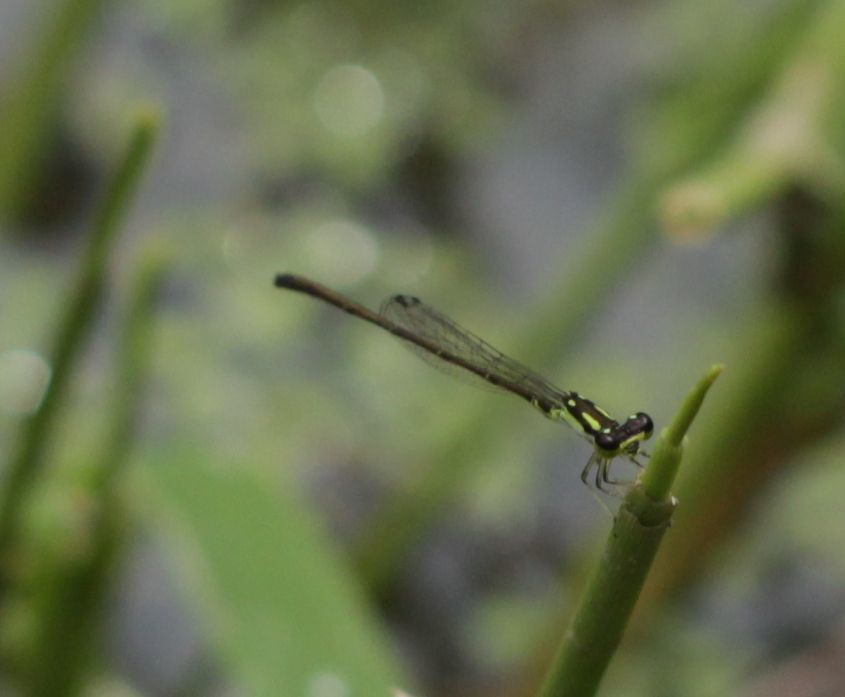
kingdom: Animalia
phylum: Arthropoda
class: Insecta
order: Odonata
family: Coenagrionidae
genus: Ischnura
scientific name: Ischnura posita
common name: Fragile forktail
